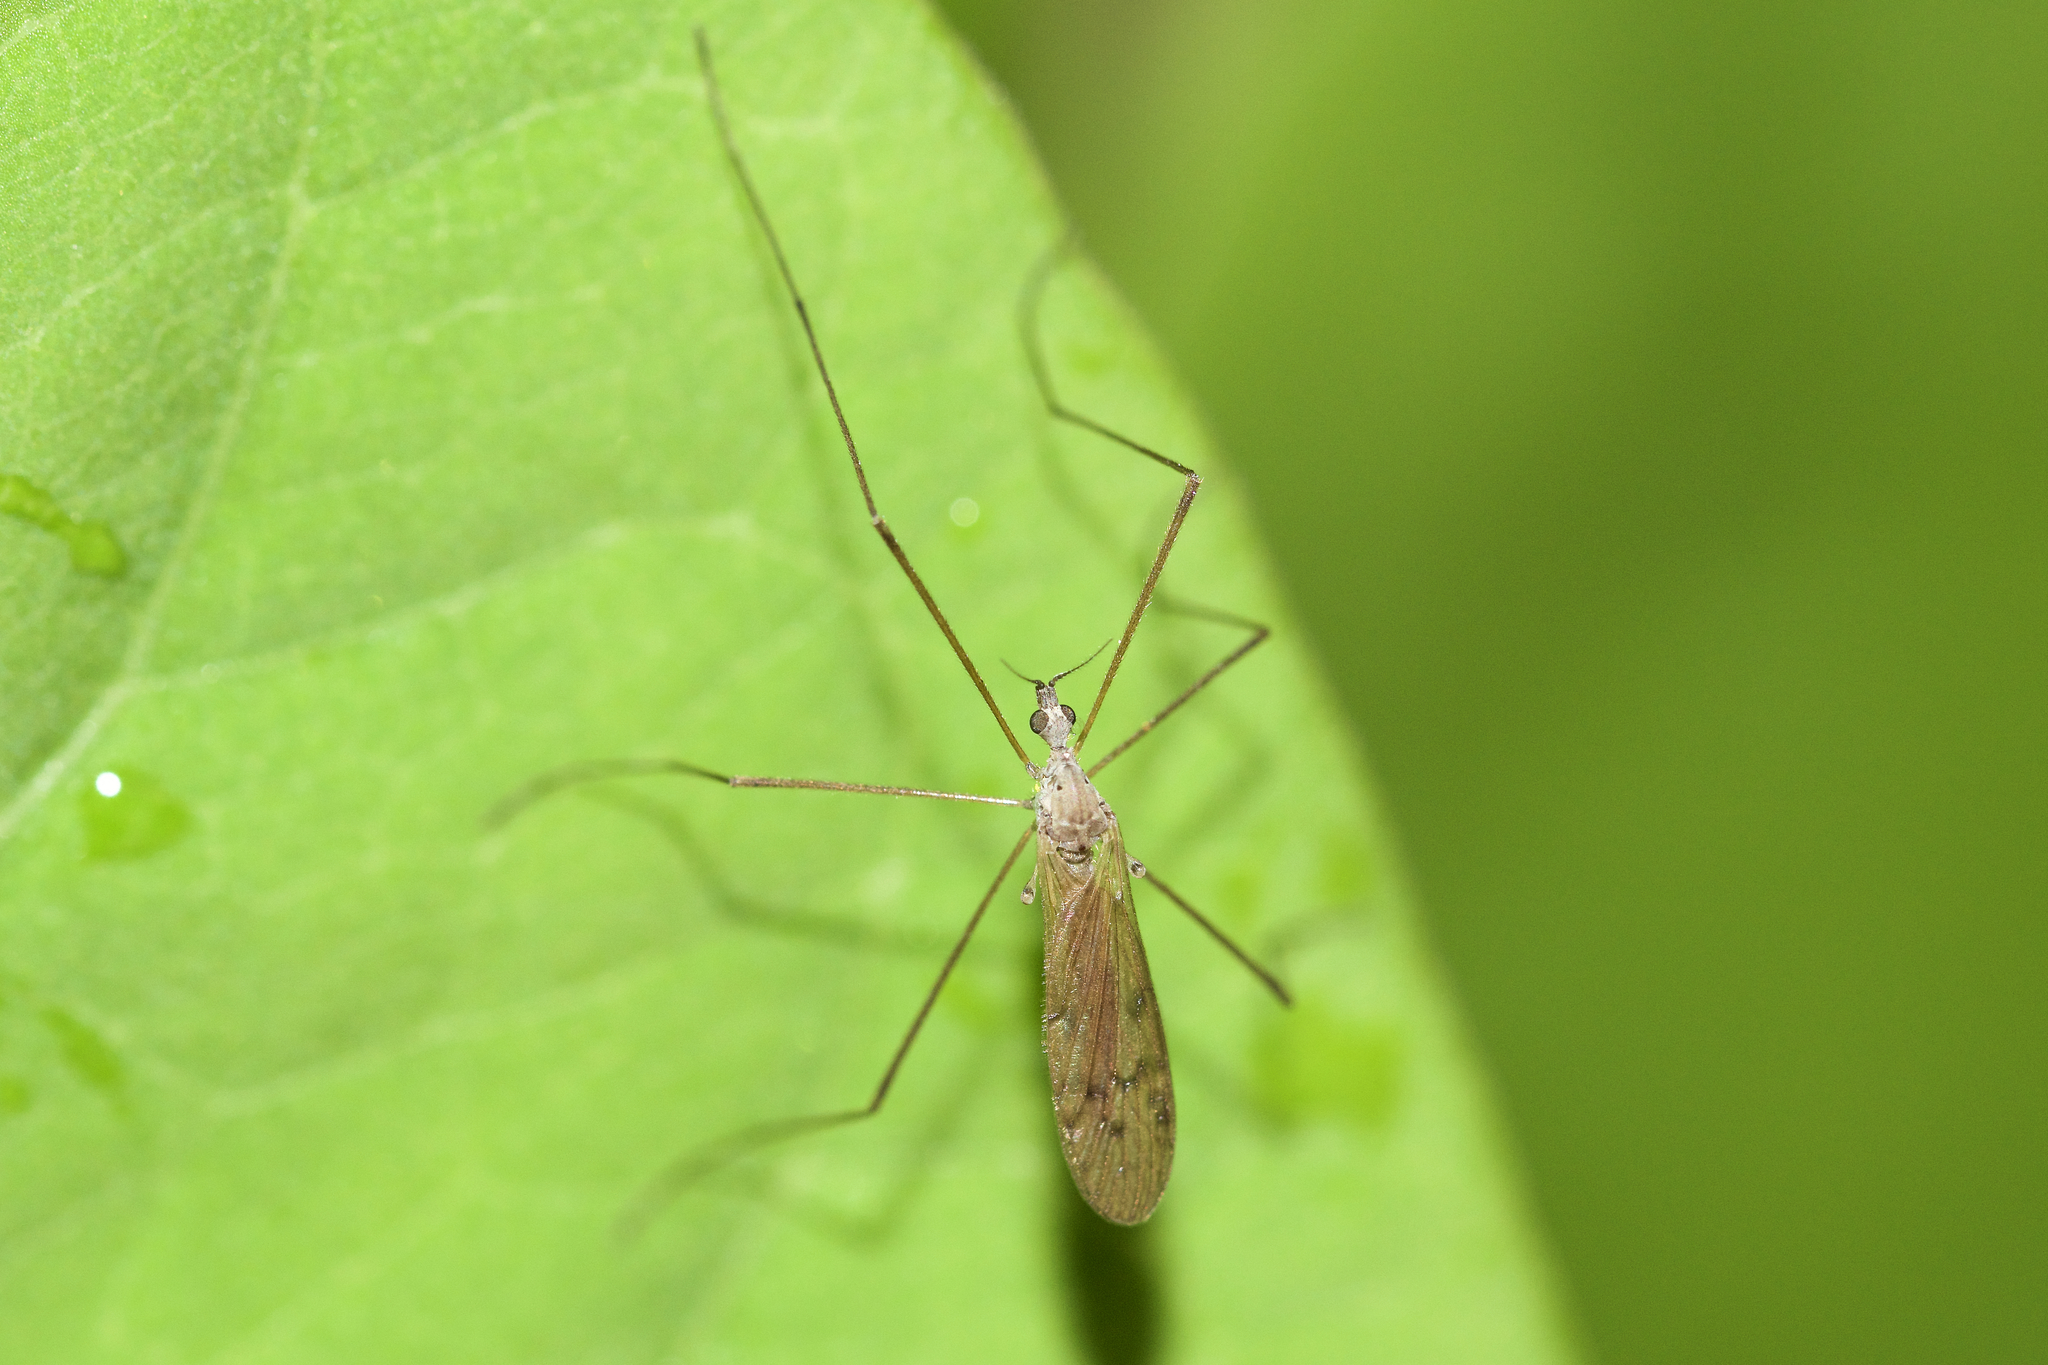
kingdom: Animalia
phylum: Arthropoda
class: Insecta
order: Diptera
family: Limoniidae
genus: Pseudolimnophila
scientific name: Pseudolimnophila luteipennis
